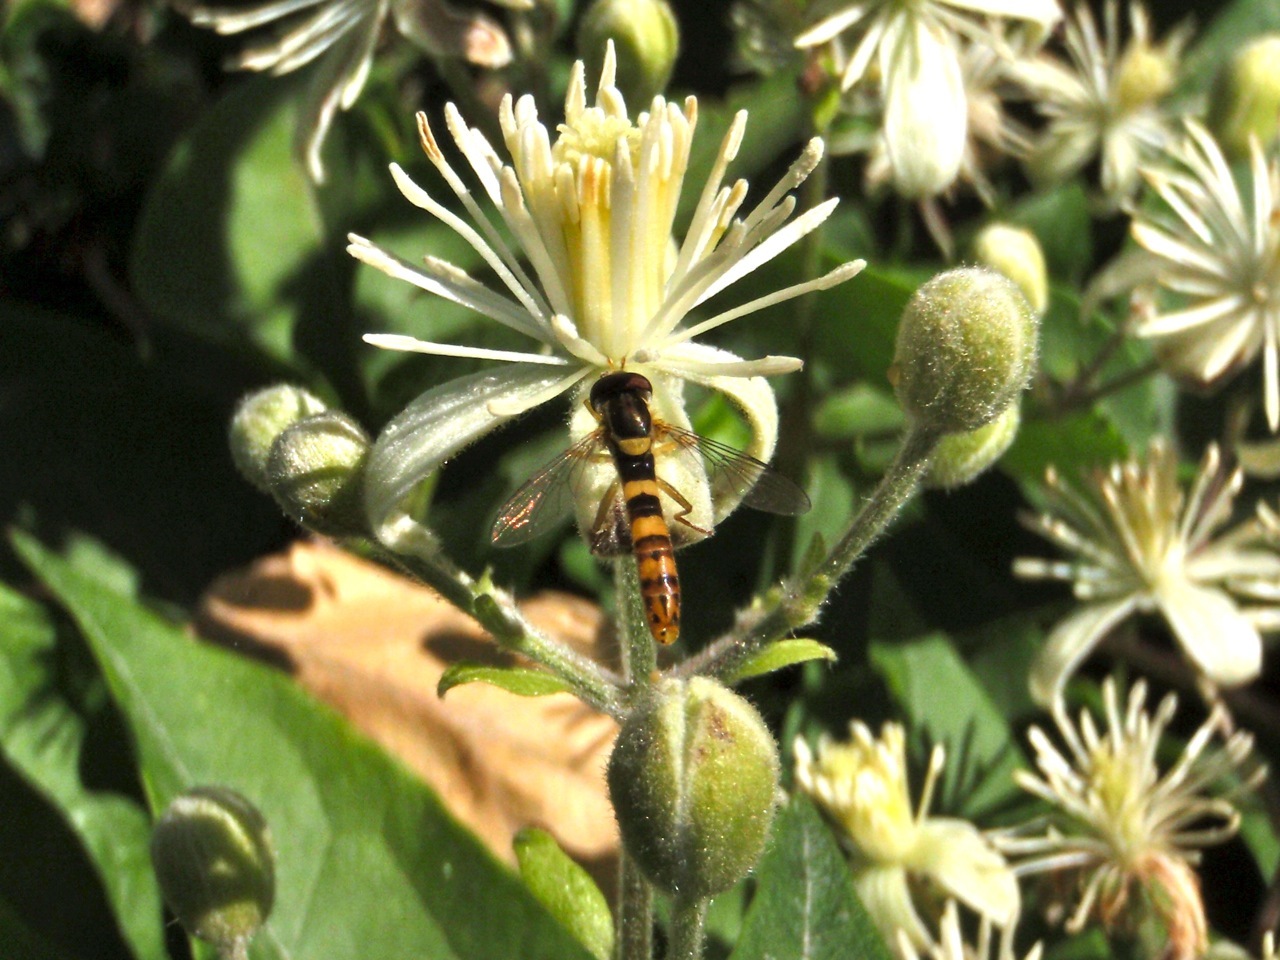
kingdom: Animalia
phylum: Arthropoda
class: Insecta
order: Diptera
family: Syrphidae
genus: Sphaerophoria
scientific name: Sphaerophoria scripta
